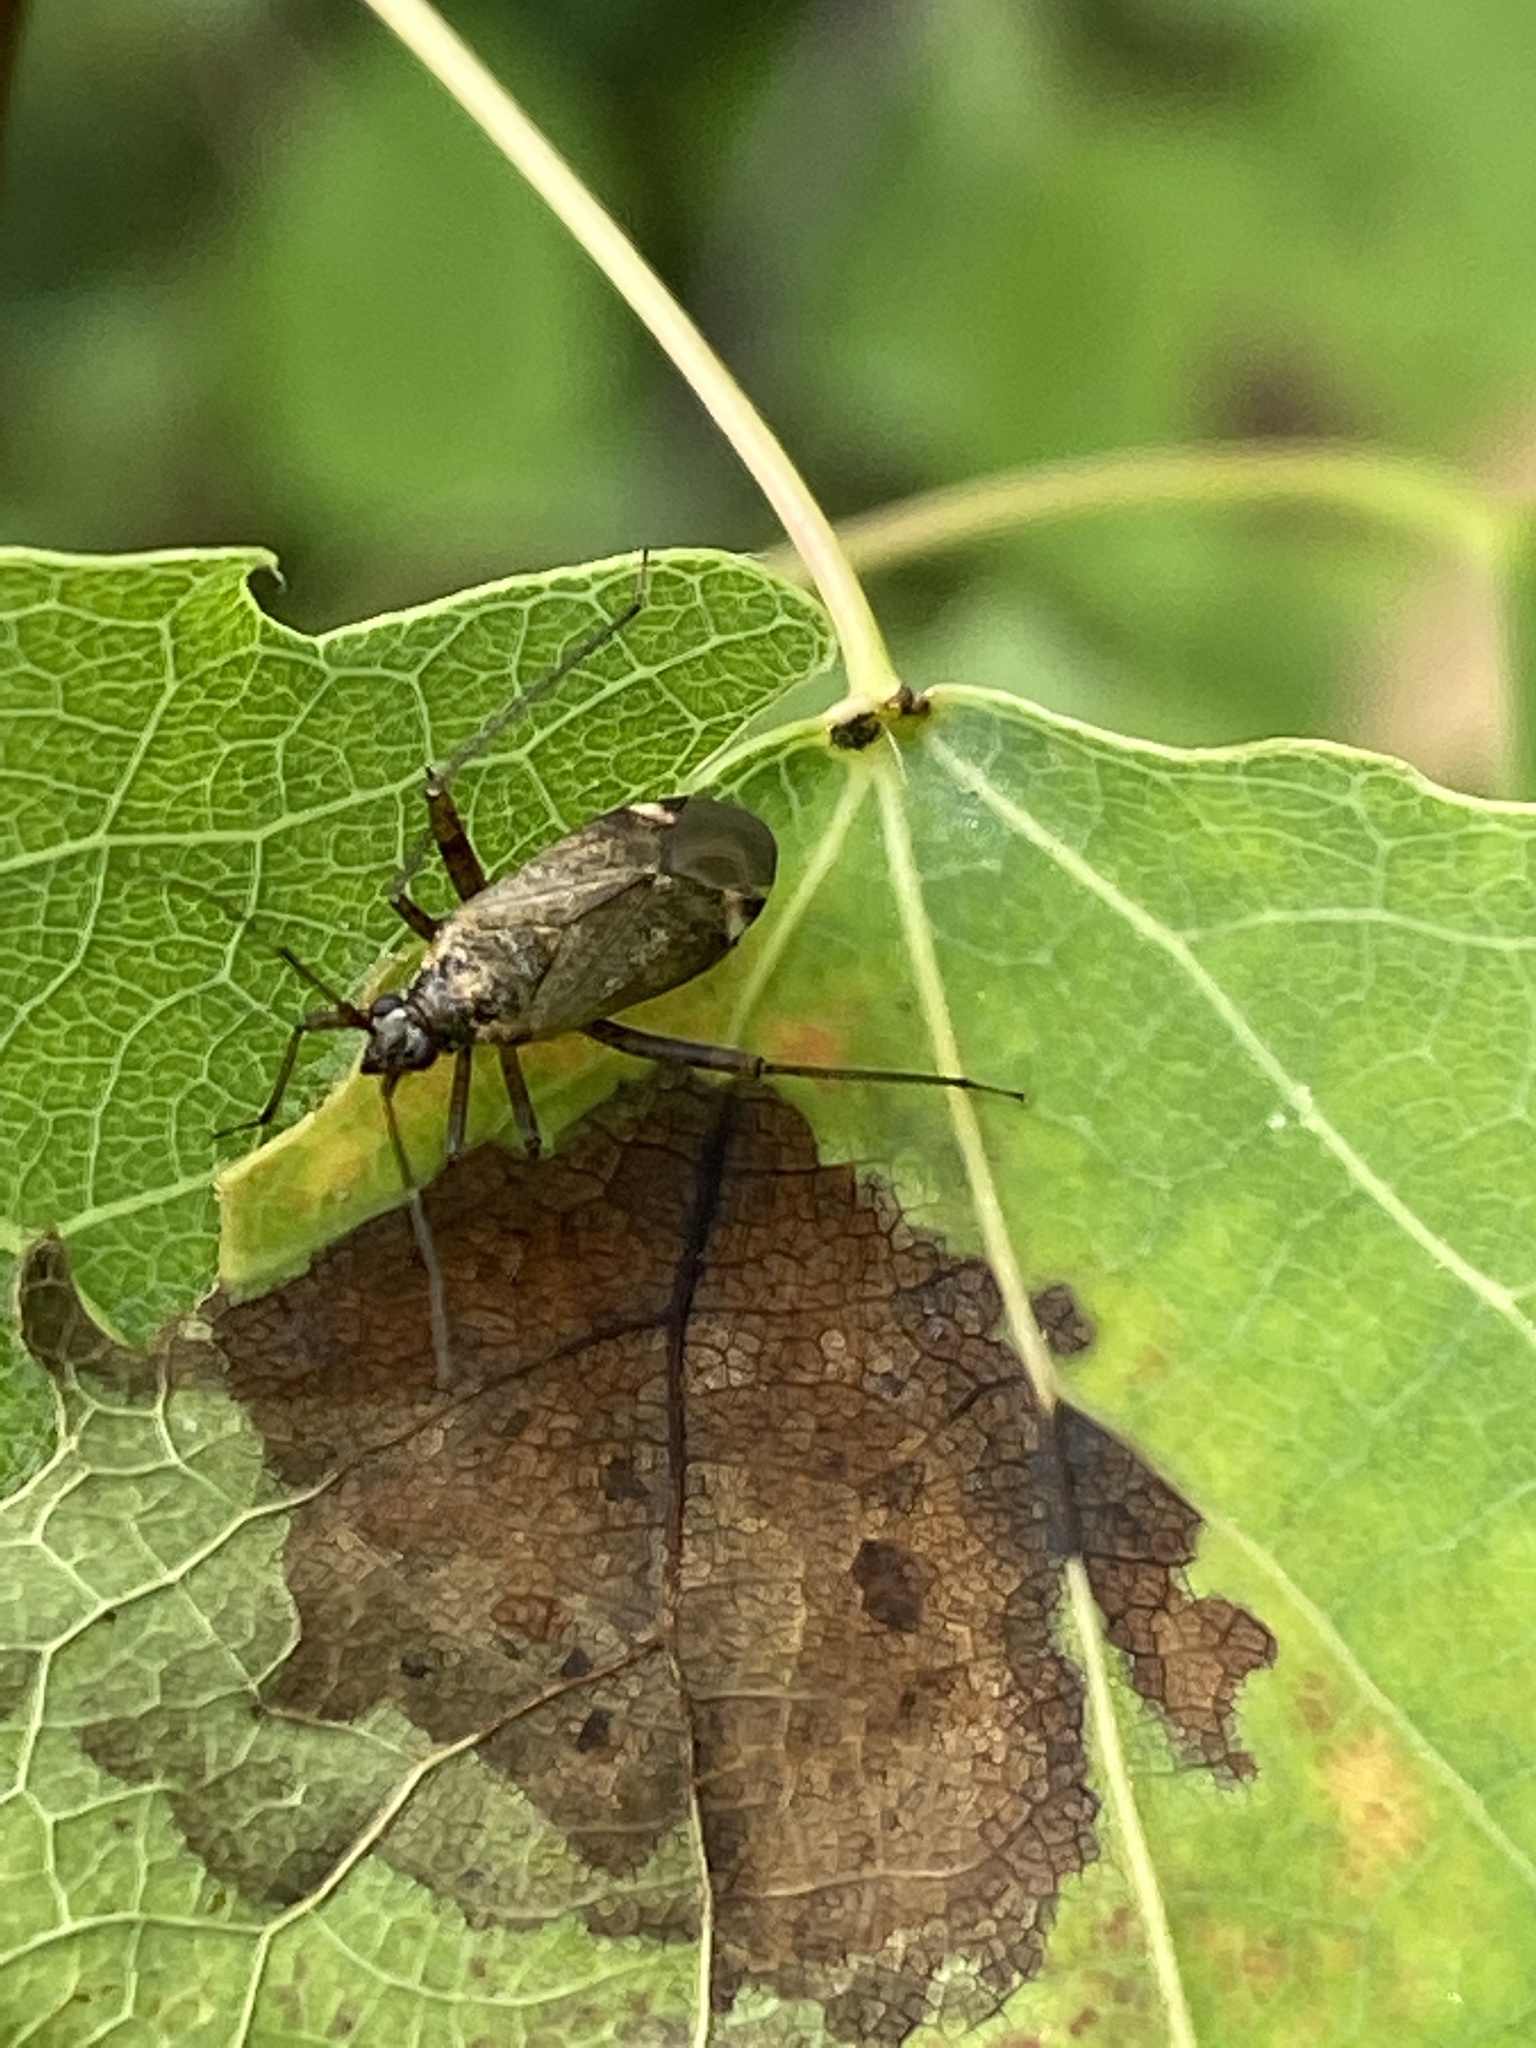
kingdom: Animalia
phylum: Arthropoda
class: Insecta
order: Hemiptera
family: Miridae
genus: Closterotomus
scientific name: Closterotomus fulvomaculatus
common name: Spotted plant bug
